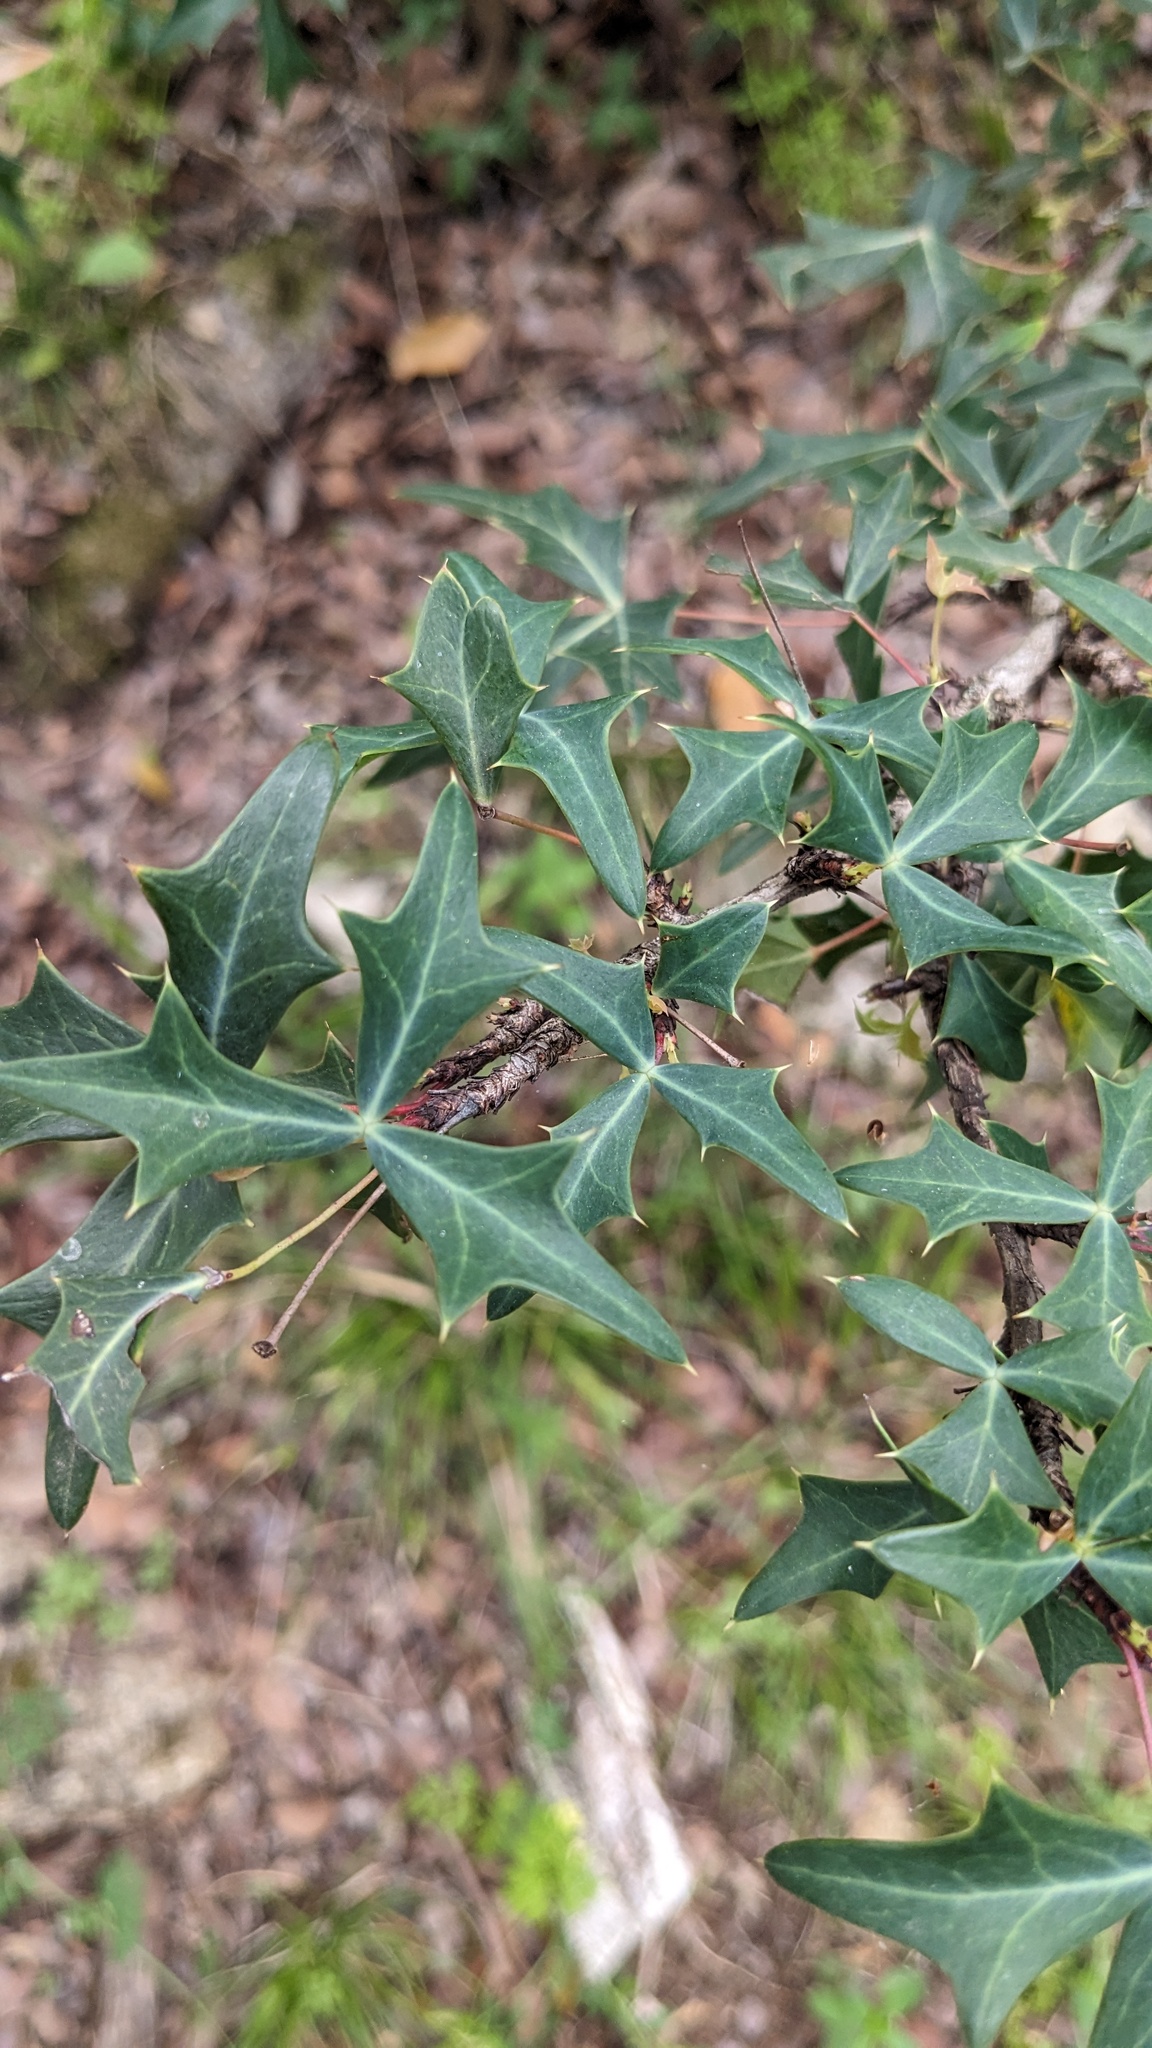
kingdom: Plantae
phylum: Tracheophyta
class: Magnoliopsida
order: Ranunculales
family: Berberidaceae
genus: Alloberberis
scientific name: Alloberberis trifoliolata
